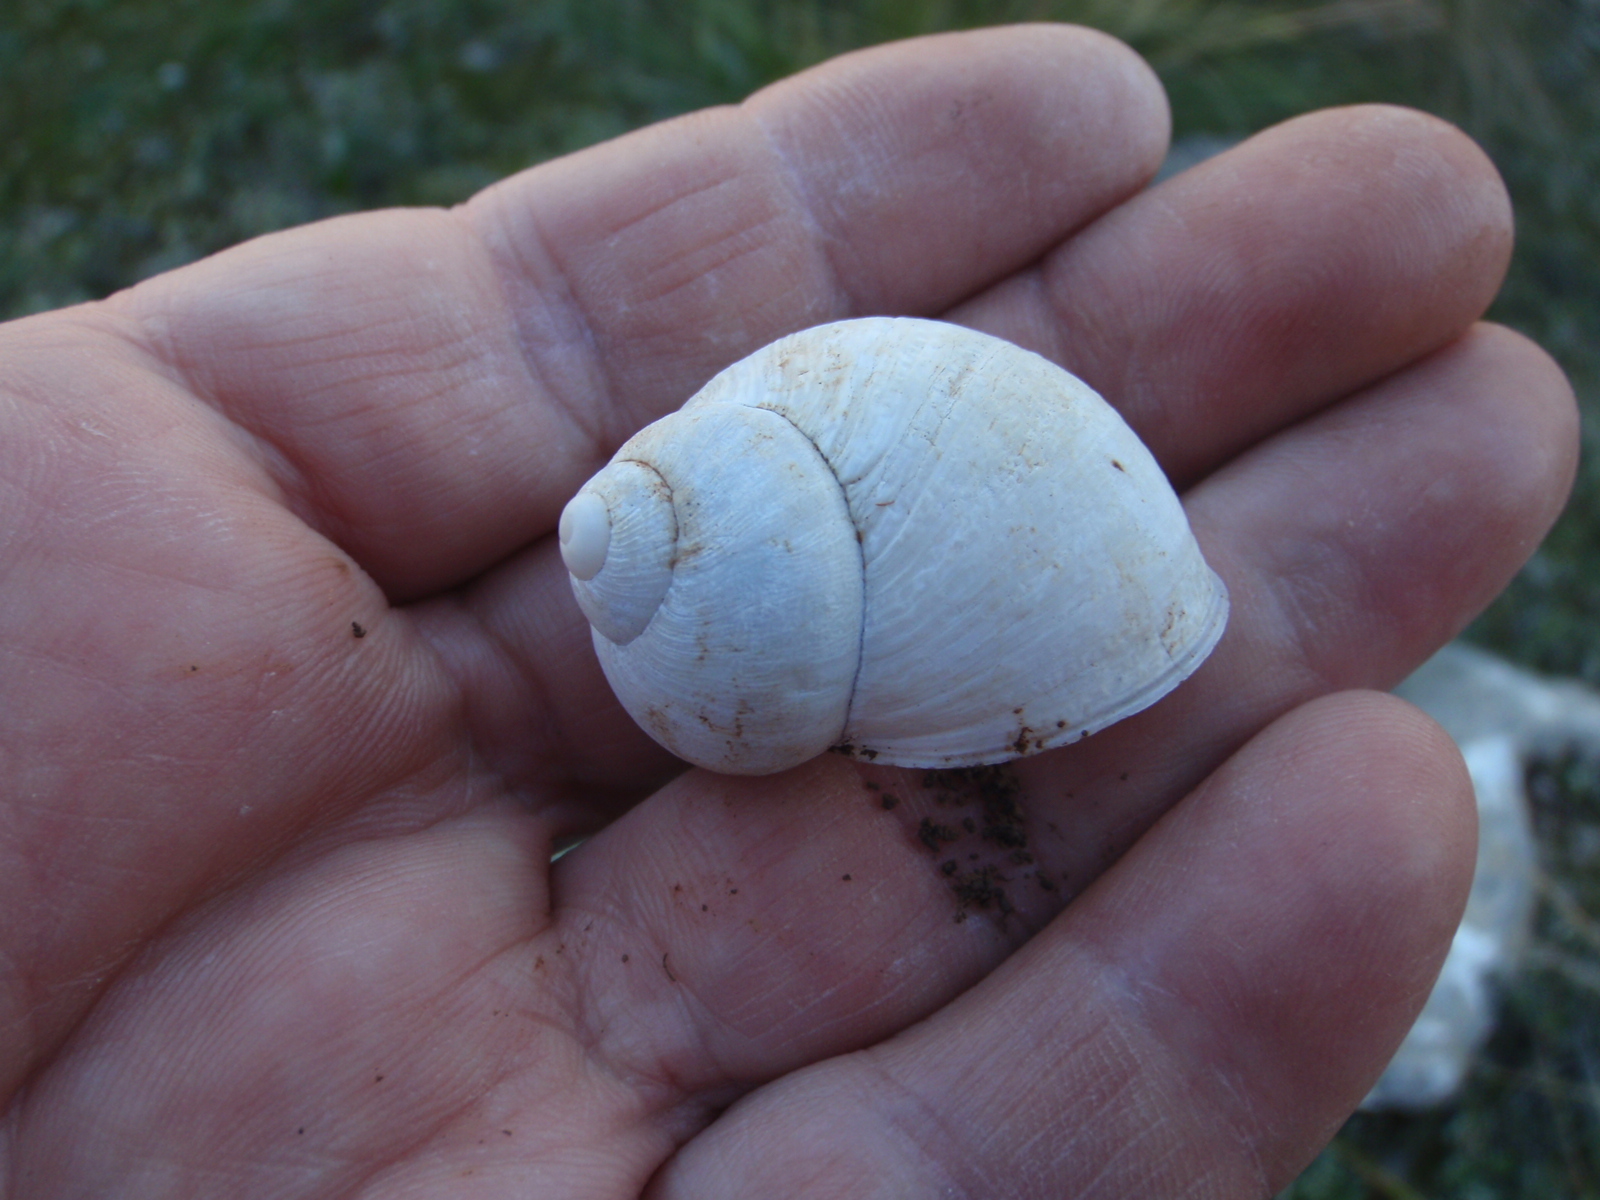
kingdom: Animalia
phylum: Mollusca
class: Gastropoda
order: Stylommatophora
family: Helicidae
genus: Cornu
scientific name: Cornu aspersum
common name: Brown garden snail
